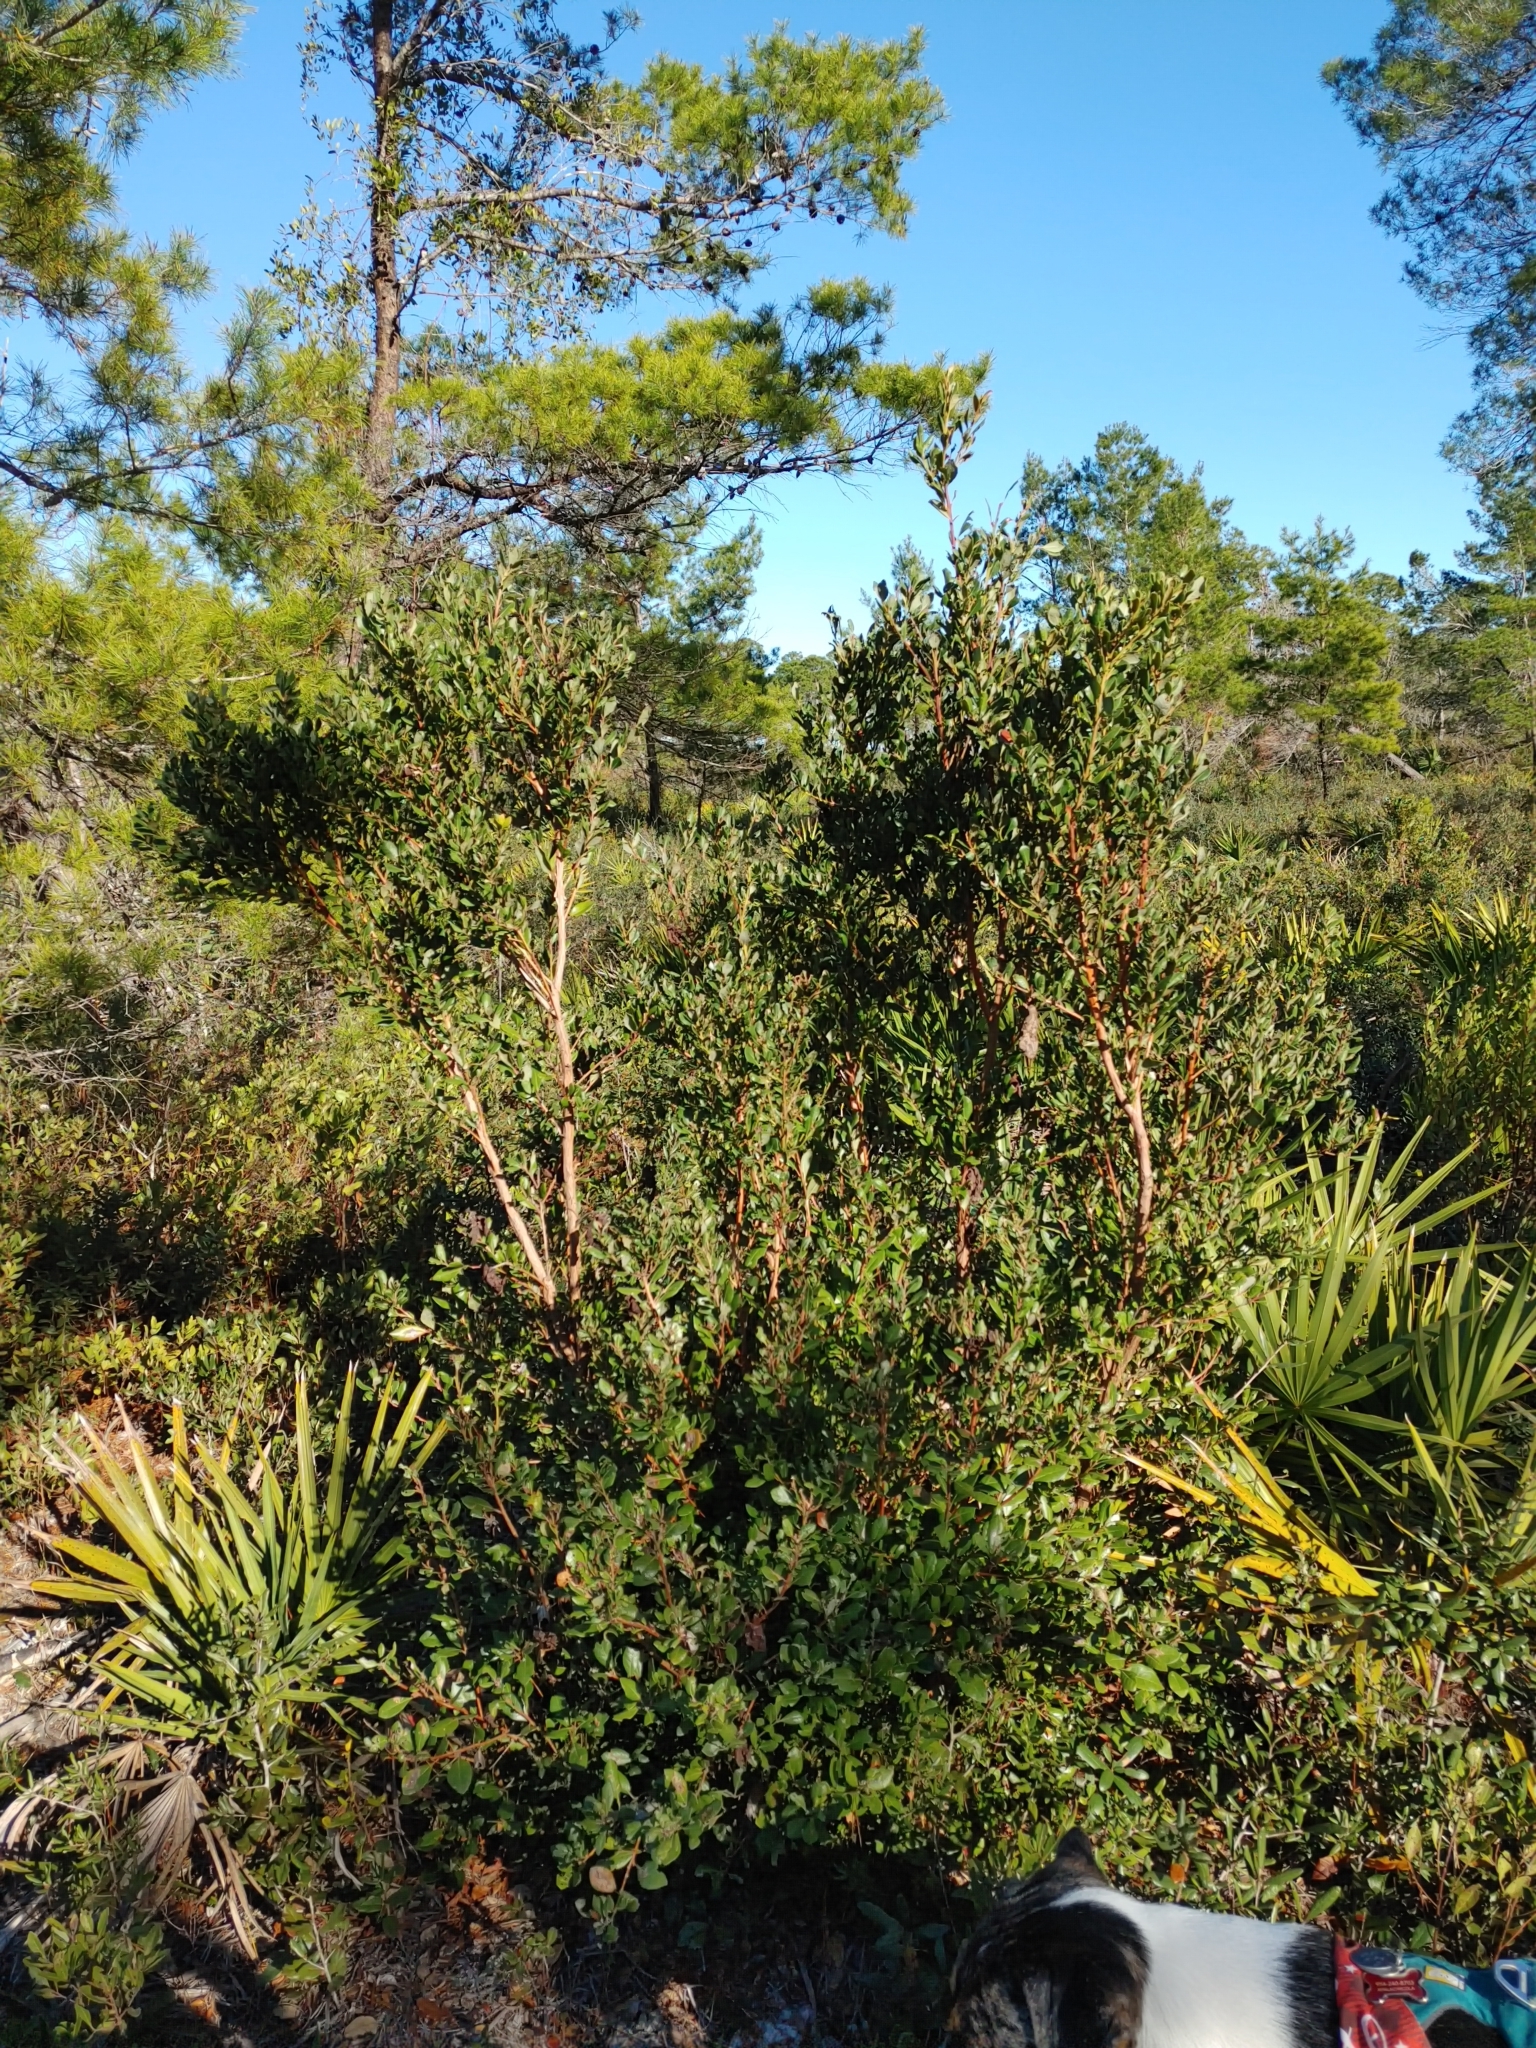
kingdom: Plantae
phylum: Tracheophyta
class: Magnoliopsida
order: Ericales
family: Ericaceae
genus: Lyonia
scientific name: Lyonia ferruginea
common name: Rusty lyonia
